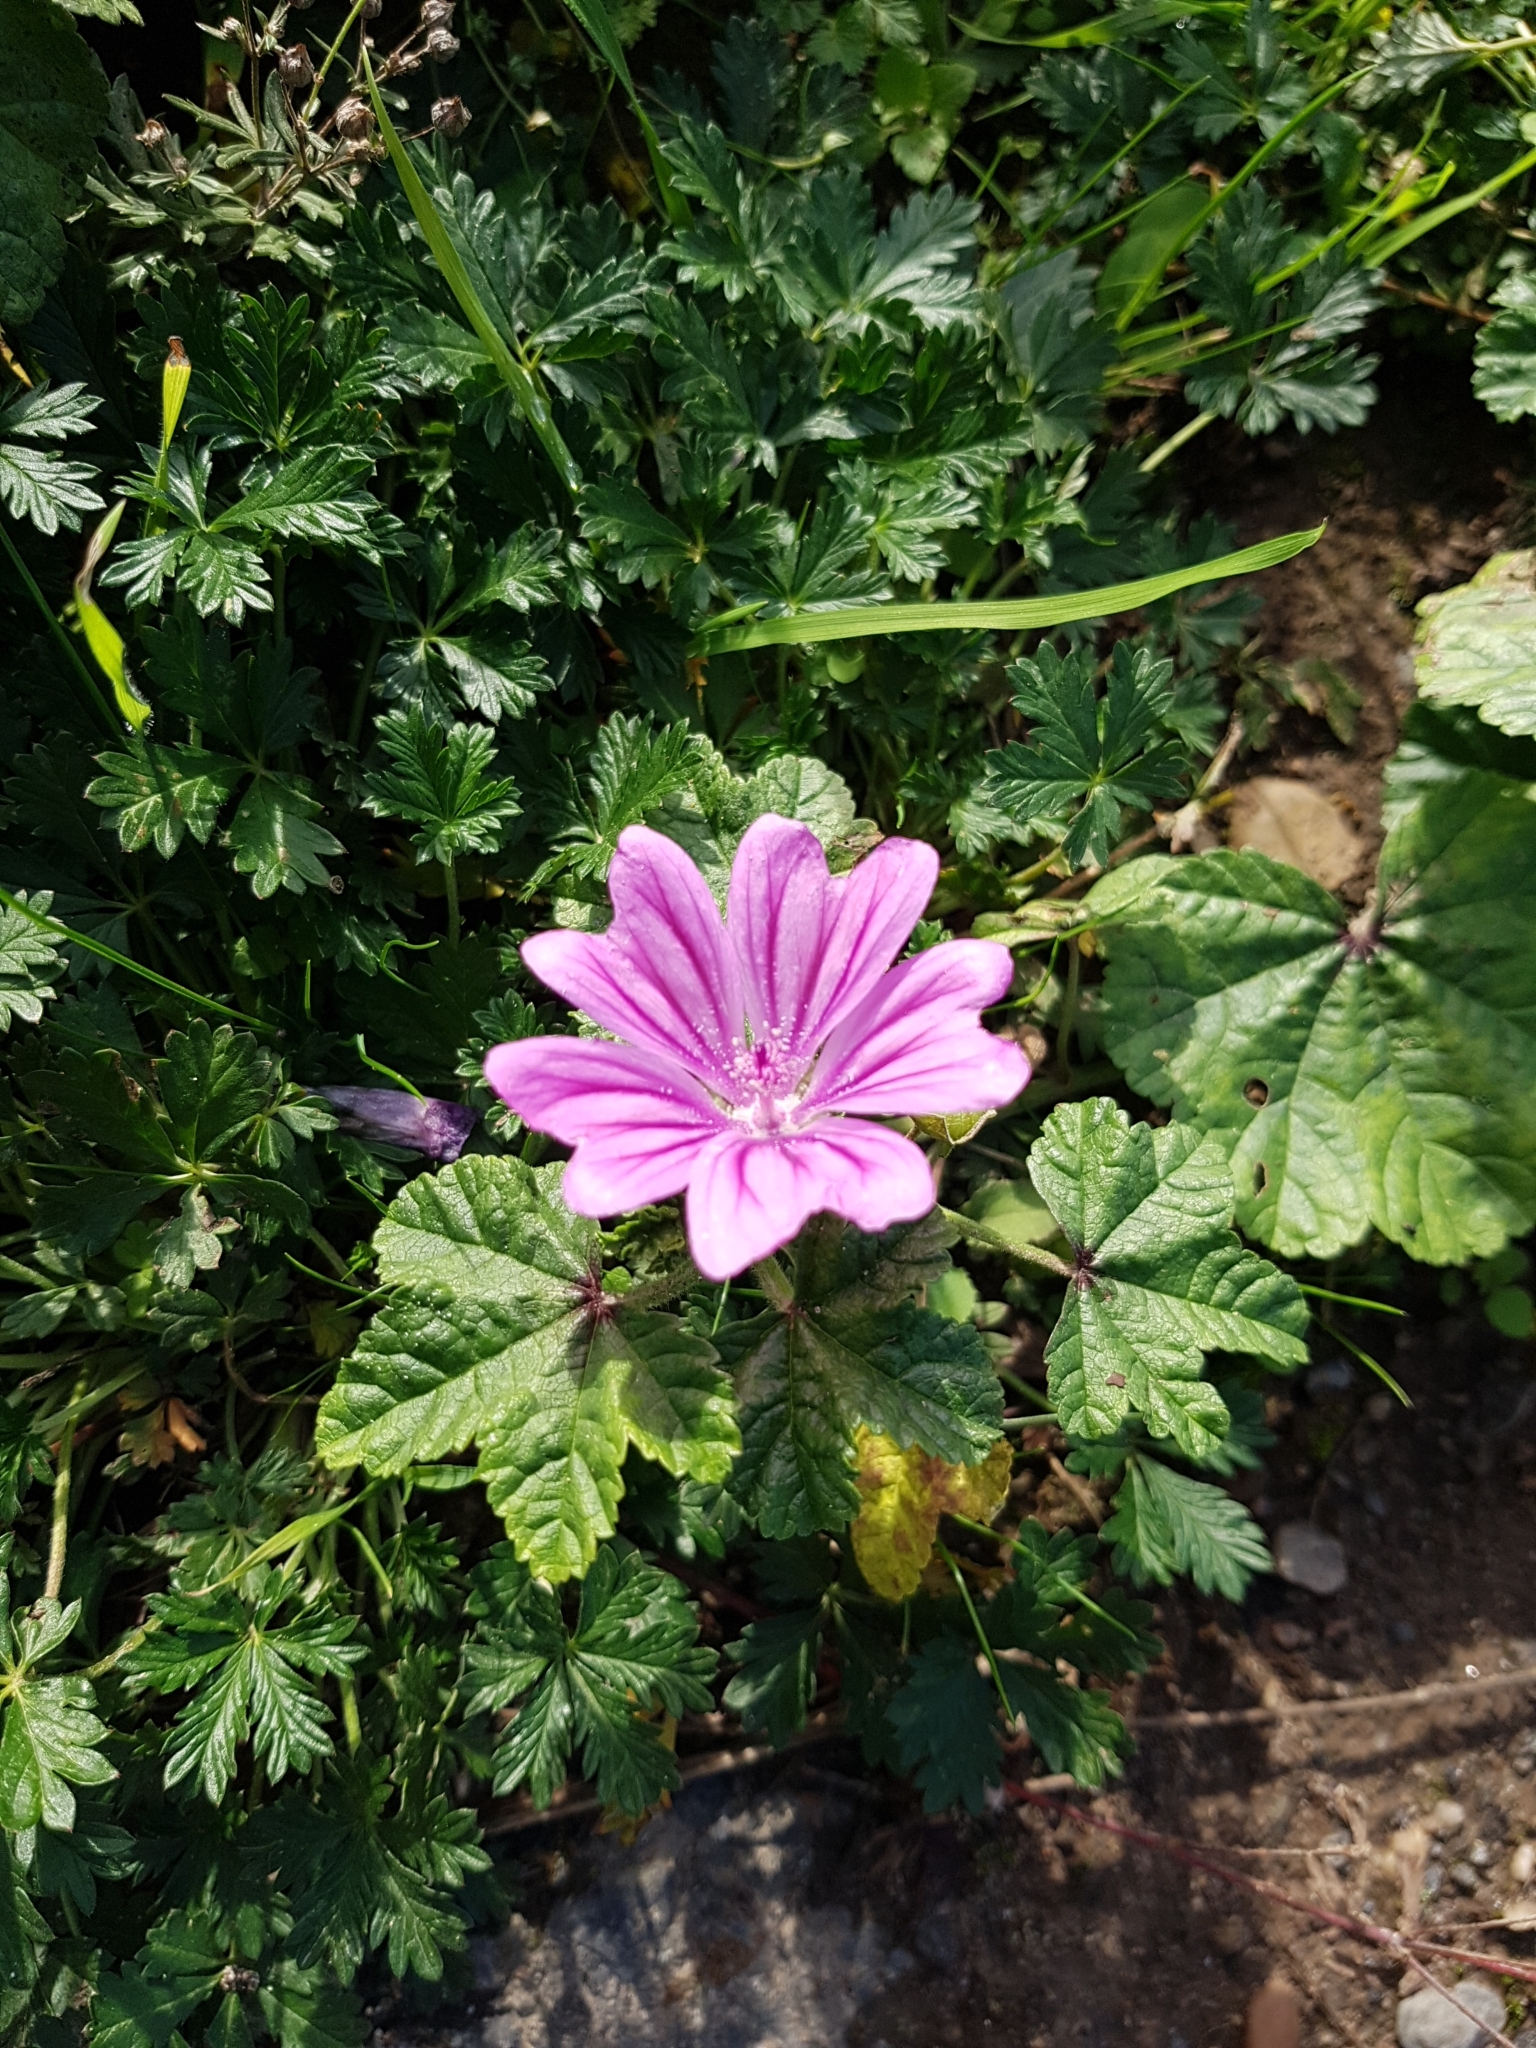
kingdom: Plantae
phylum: Tracheophyta
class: Magnoliopsida
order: Malvales
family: Malvaceae
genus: Malva
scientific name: Malva sylvestris
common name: Common mallow
